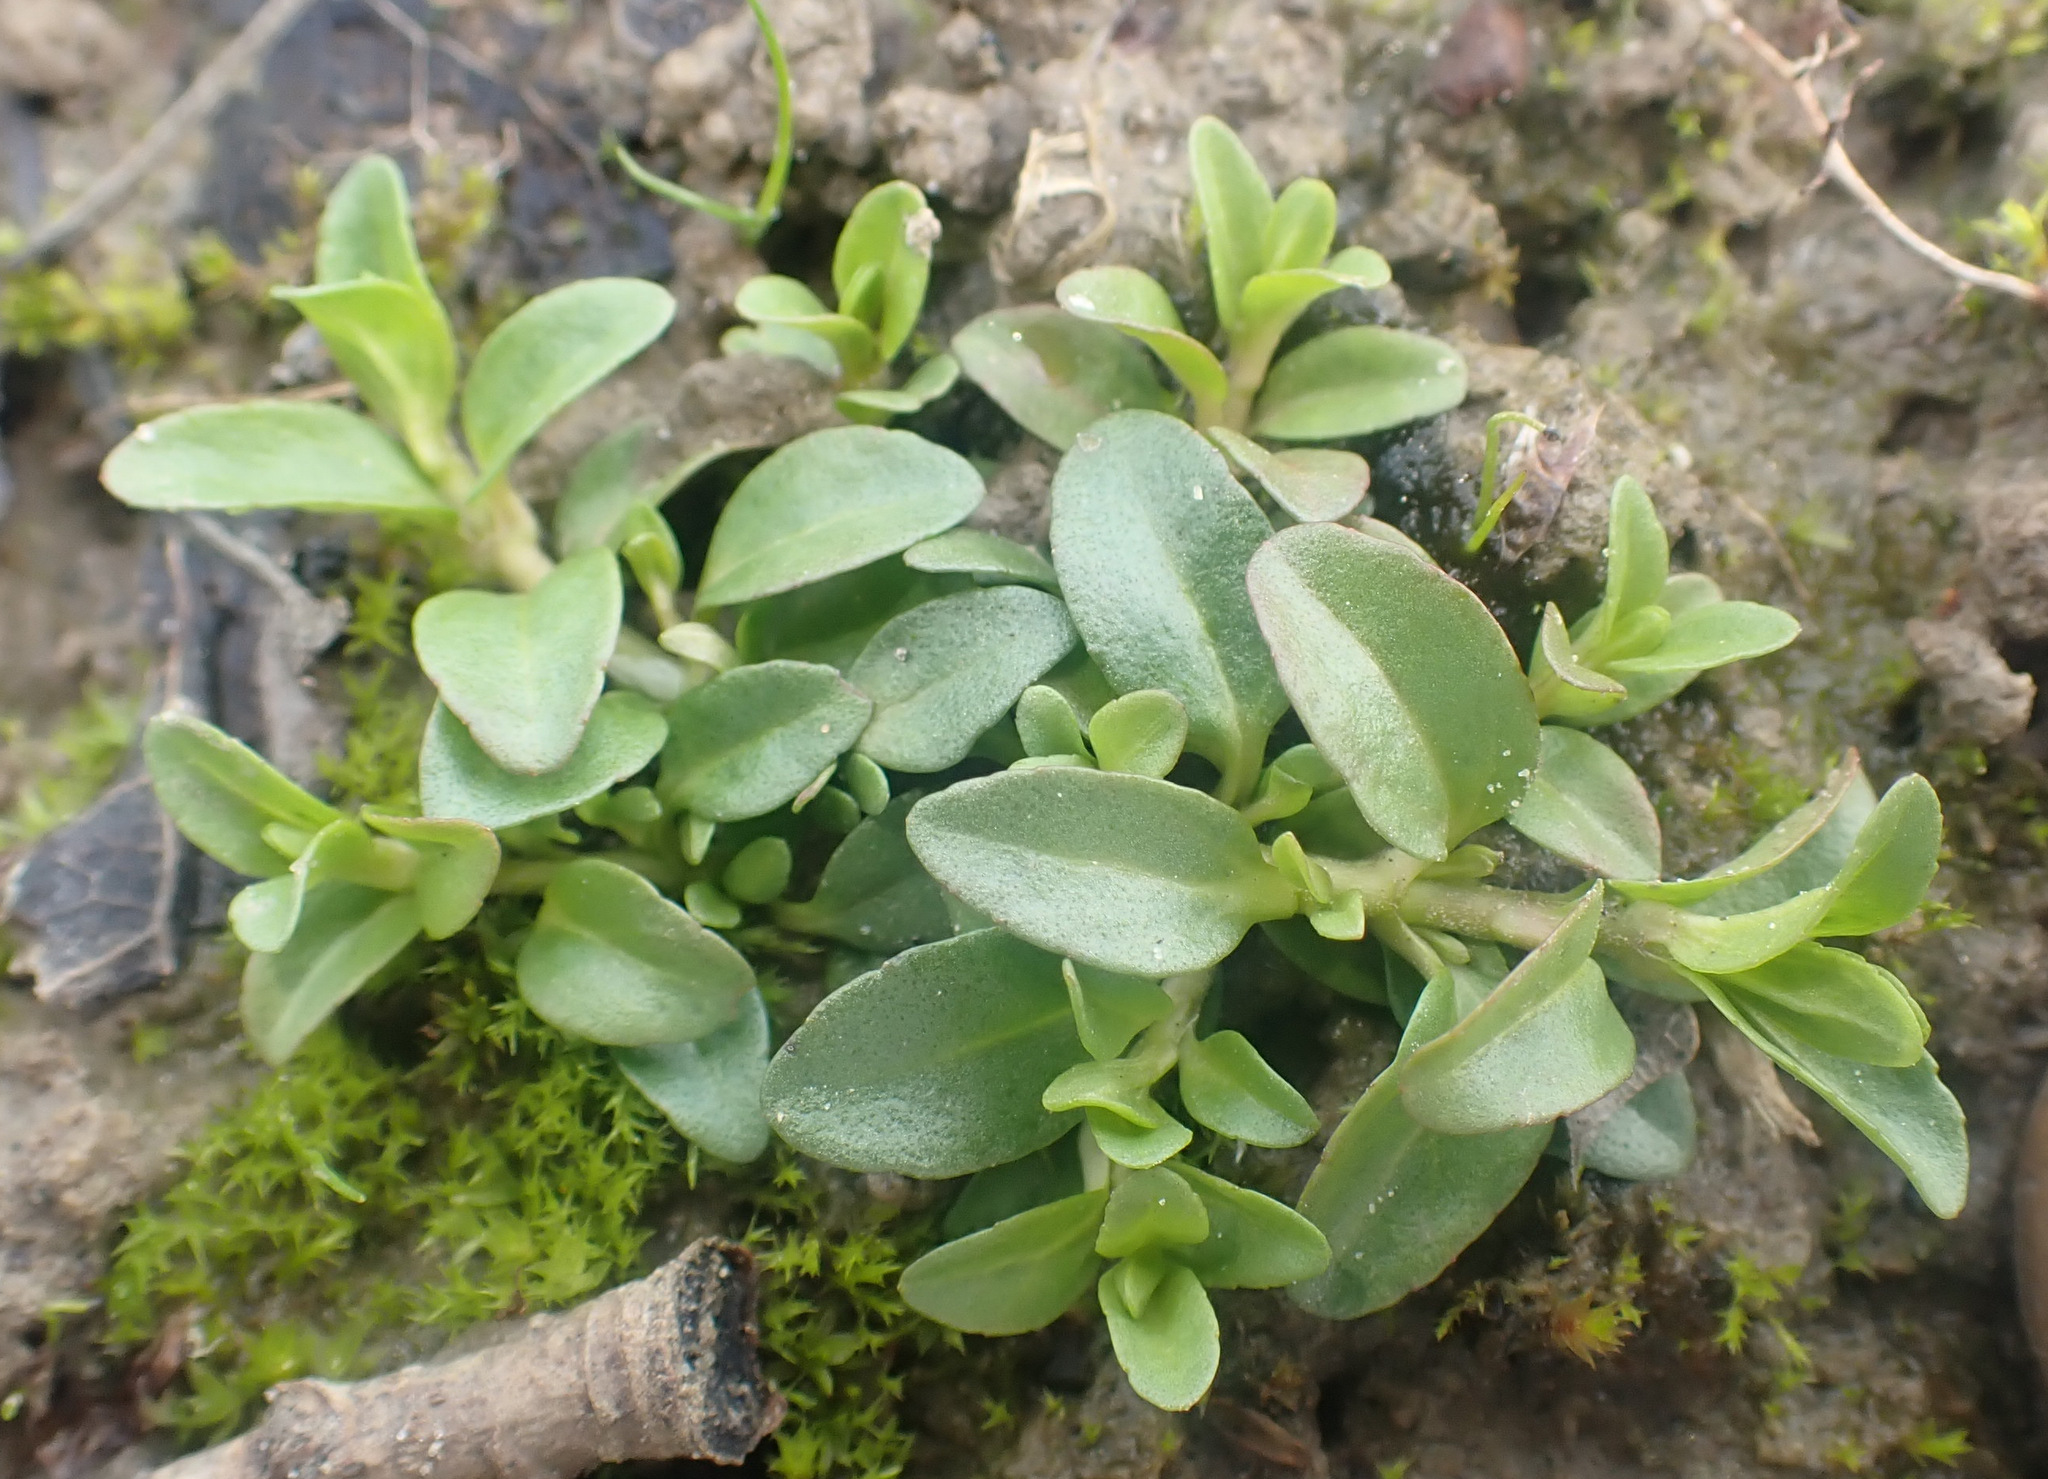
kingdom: Plantae
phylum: Tracheophyta
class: Magnoliopsida
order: Lamiales
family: Plantaginaceae
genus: Veronica
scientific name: Veronica serpyllifolia
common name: Thyme-leaved speedwell
